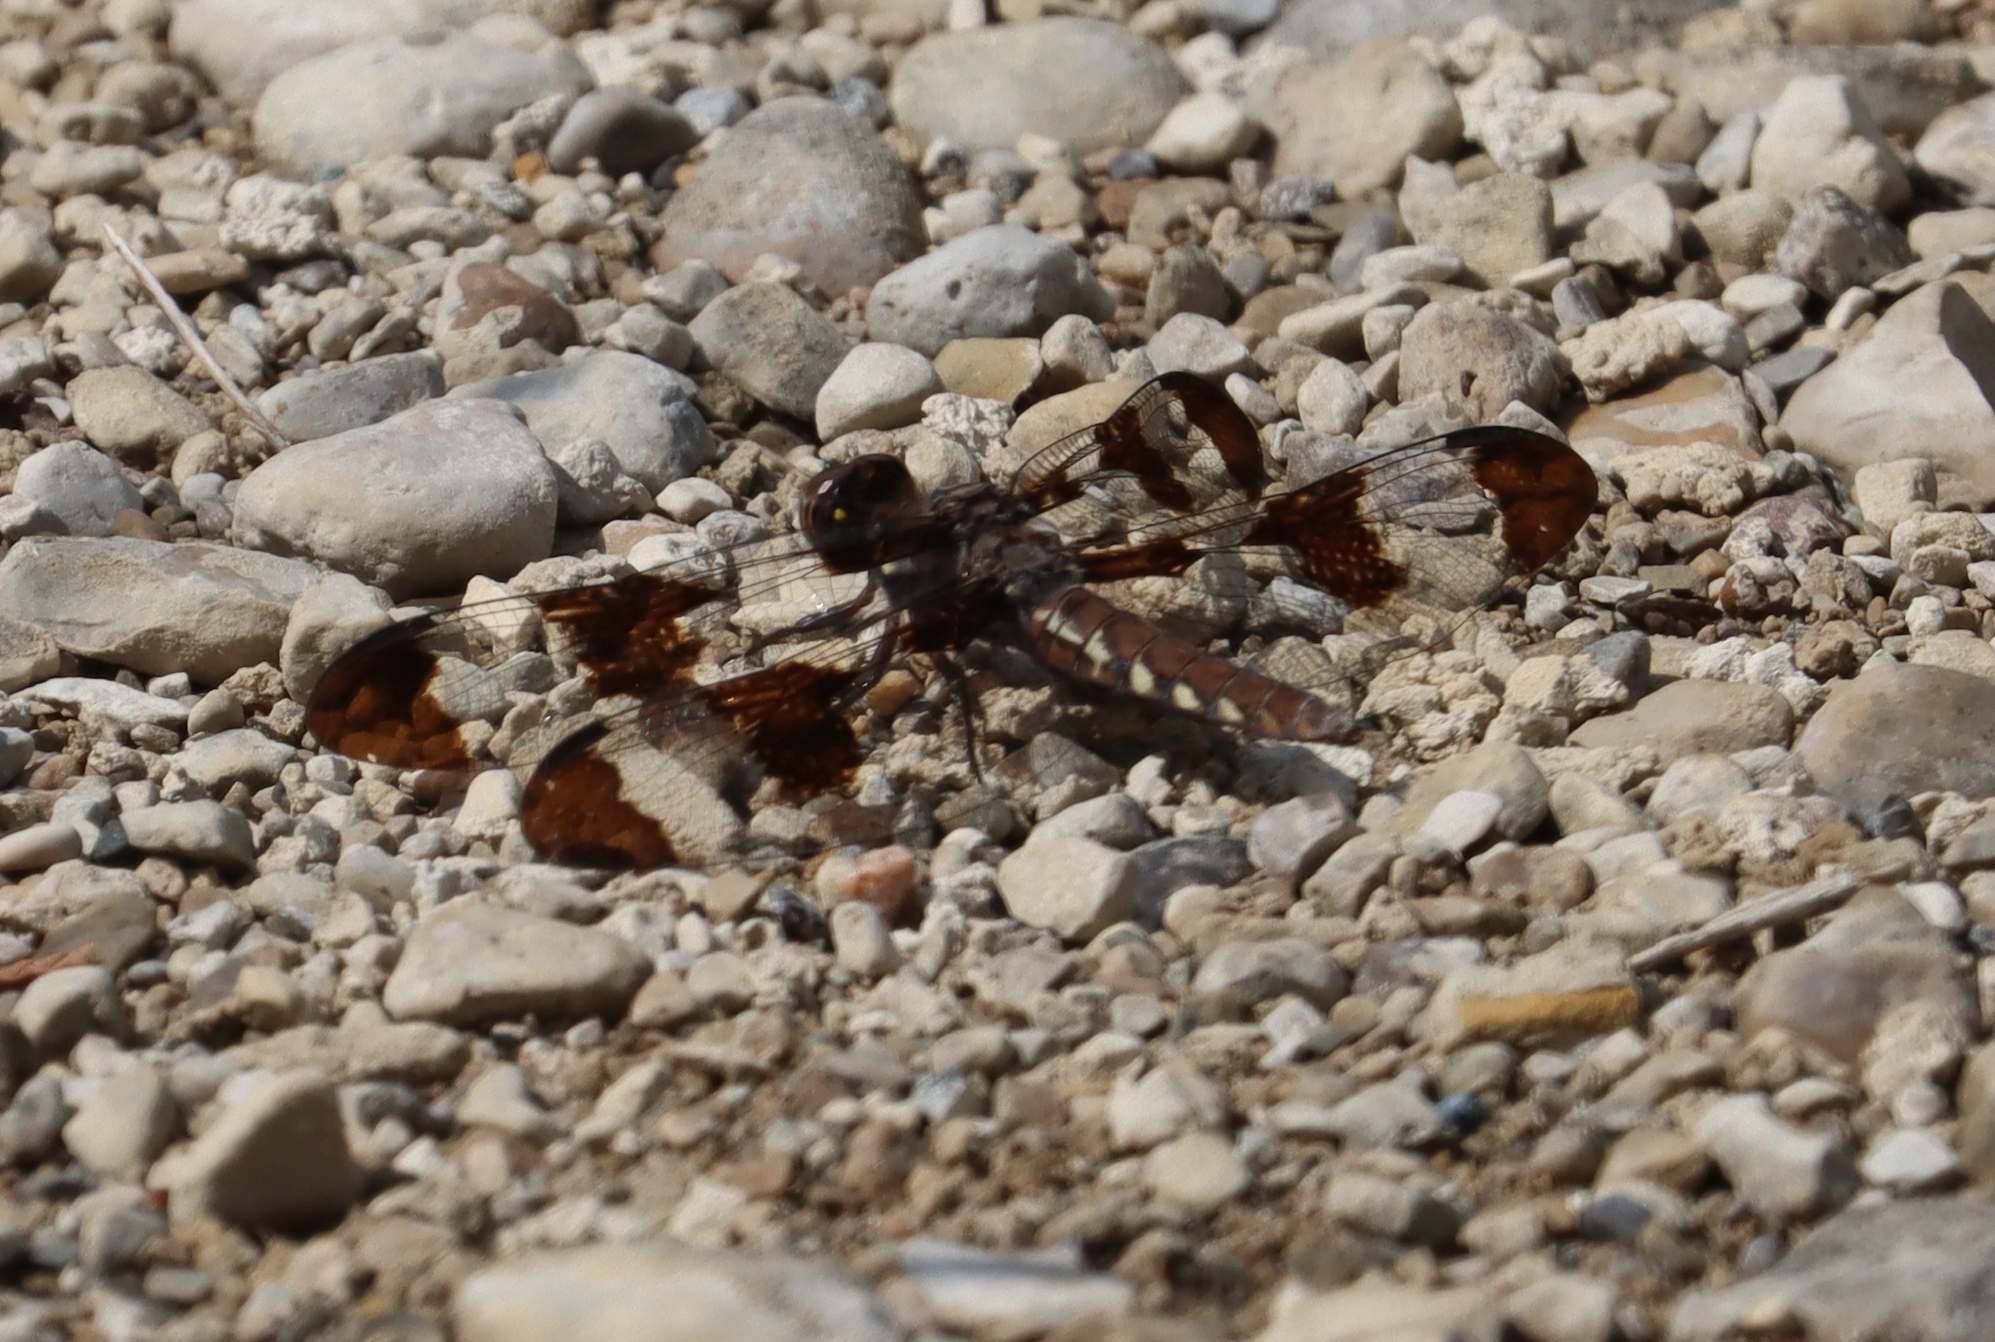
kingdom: Animalia
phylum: Arthropoda
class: Insecta
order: Odonata
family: Libellulidae
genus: Plathemis
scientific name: Plathemis lydia
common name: Common whitetail
